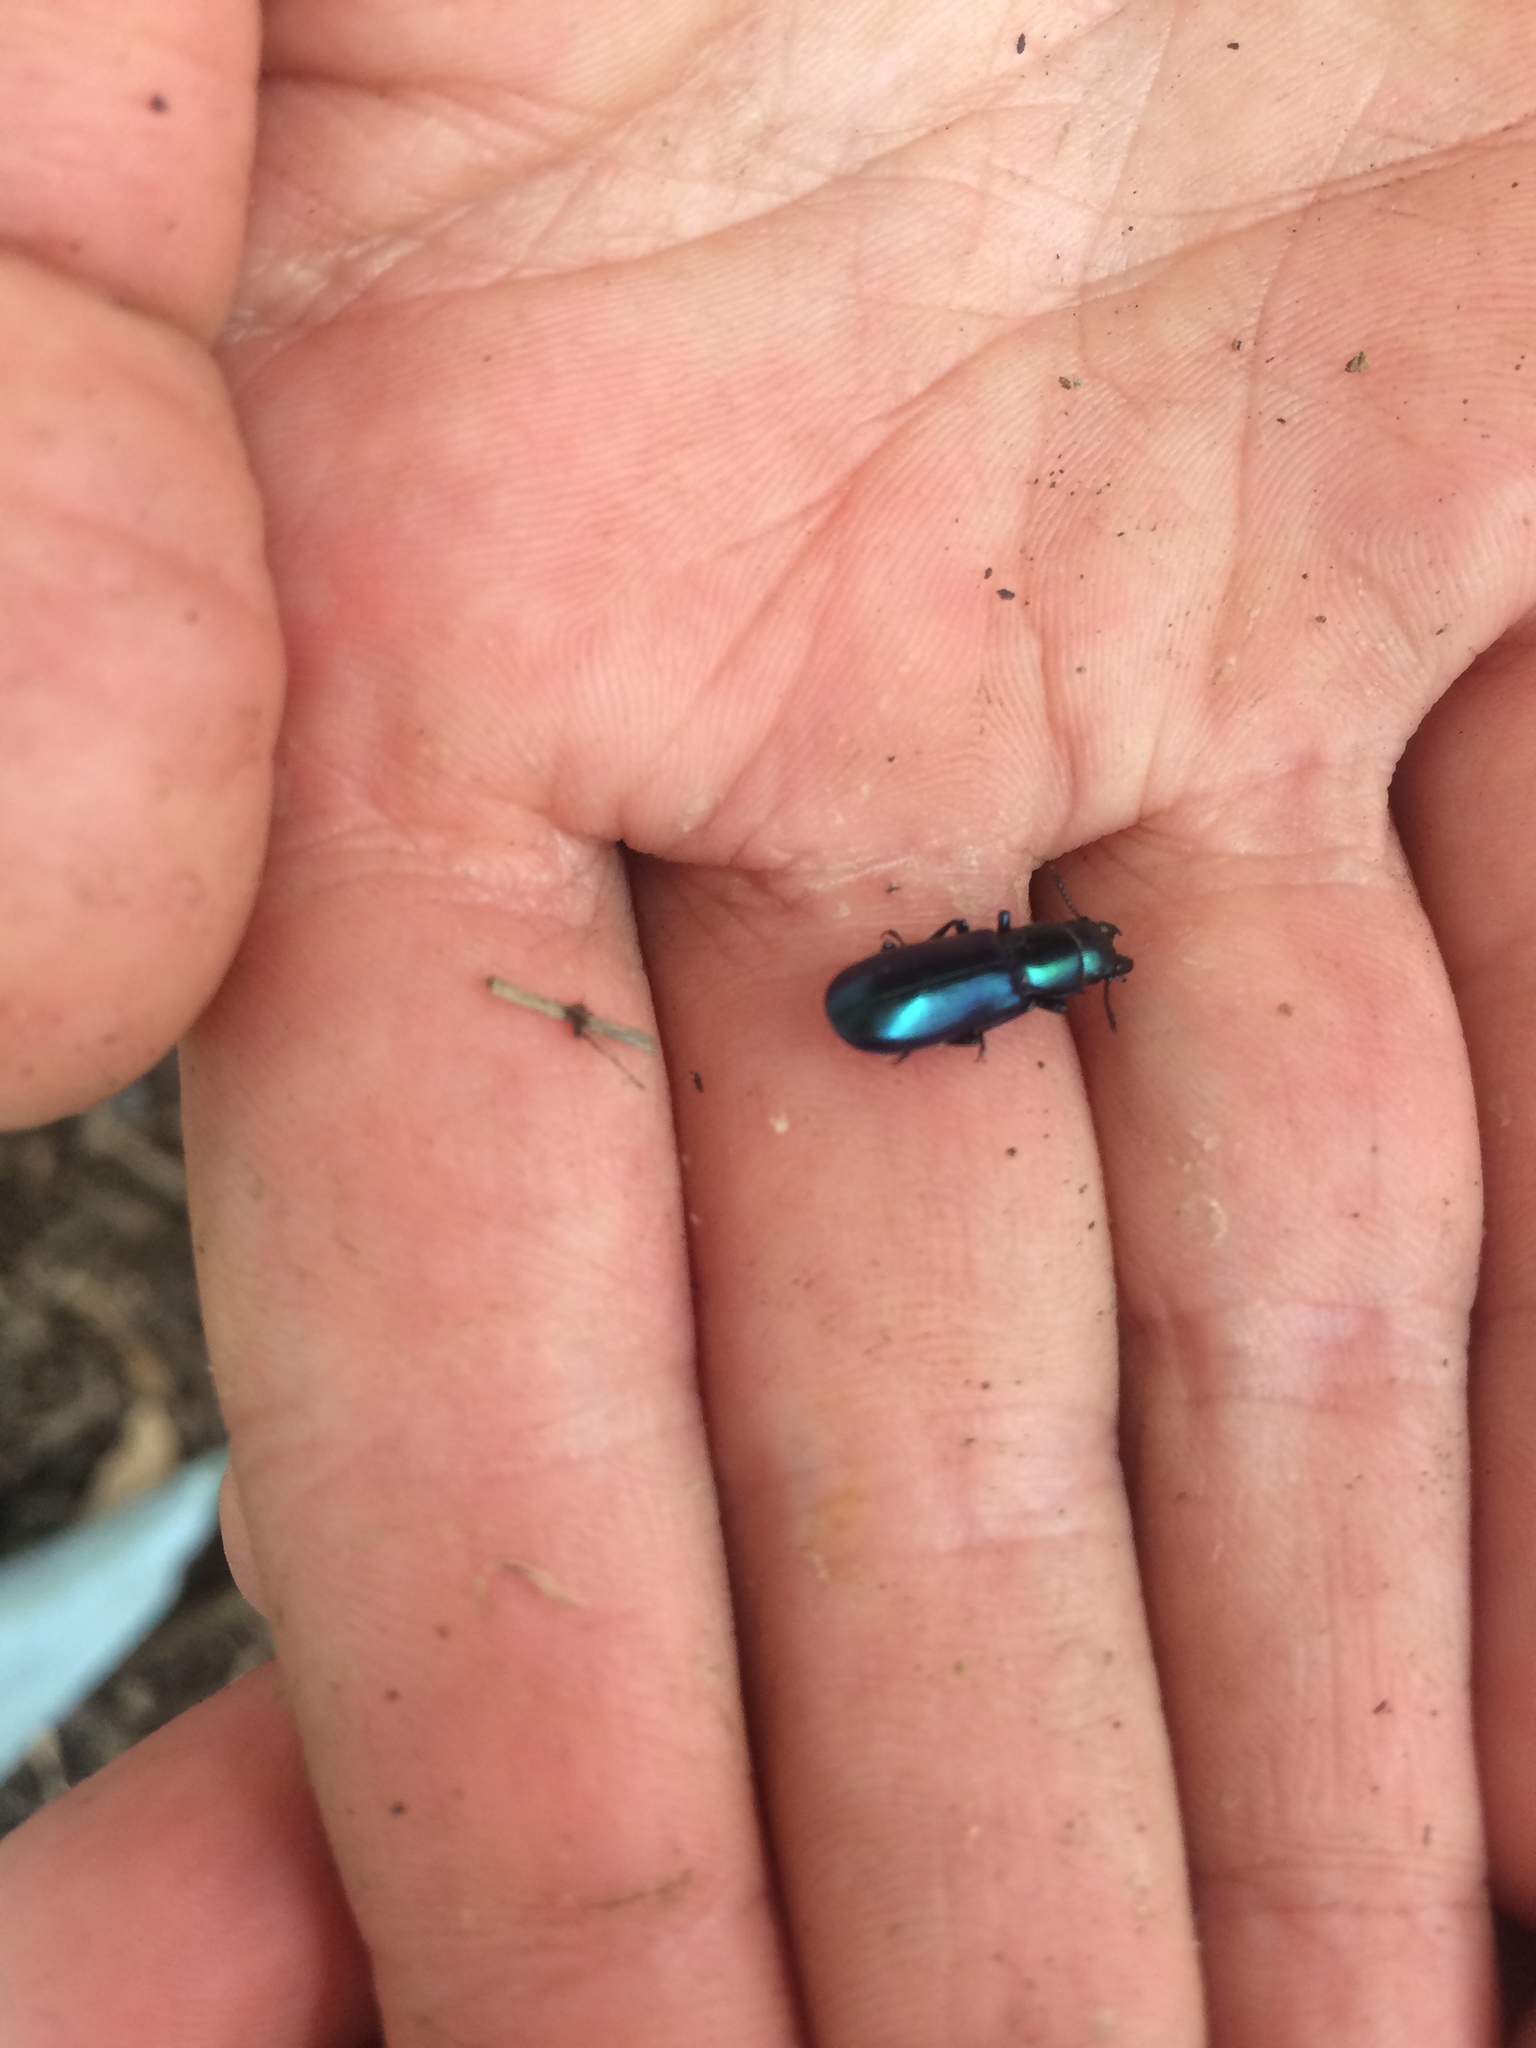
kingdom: Animalia
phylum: Arthropoda
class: Insecta
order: Coleoptera
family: Trogossitidae
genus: Temnoscheila
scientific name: Temnoscheila
